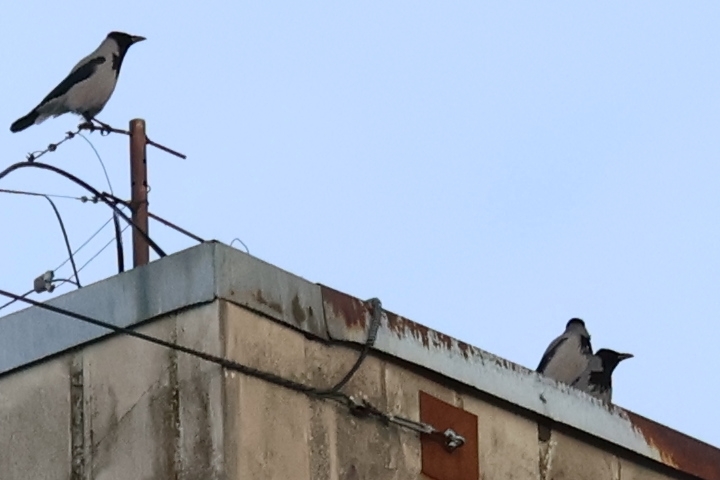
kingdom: Animalia
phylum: Chordata
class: Aves
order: Passeriformes
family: Corvidae
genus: Corvus
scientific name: Corvus cornix
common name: Hooded crow
